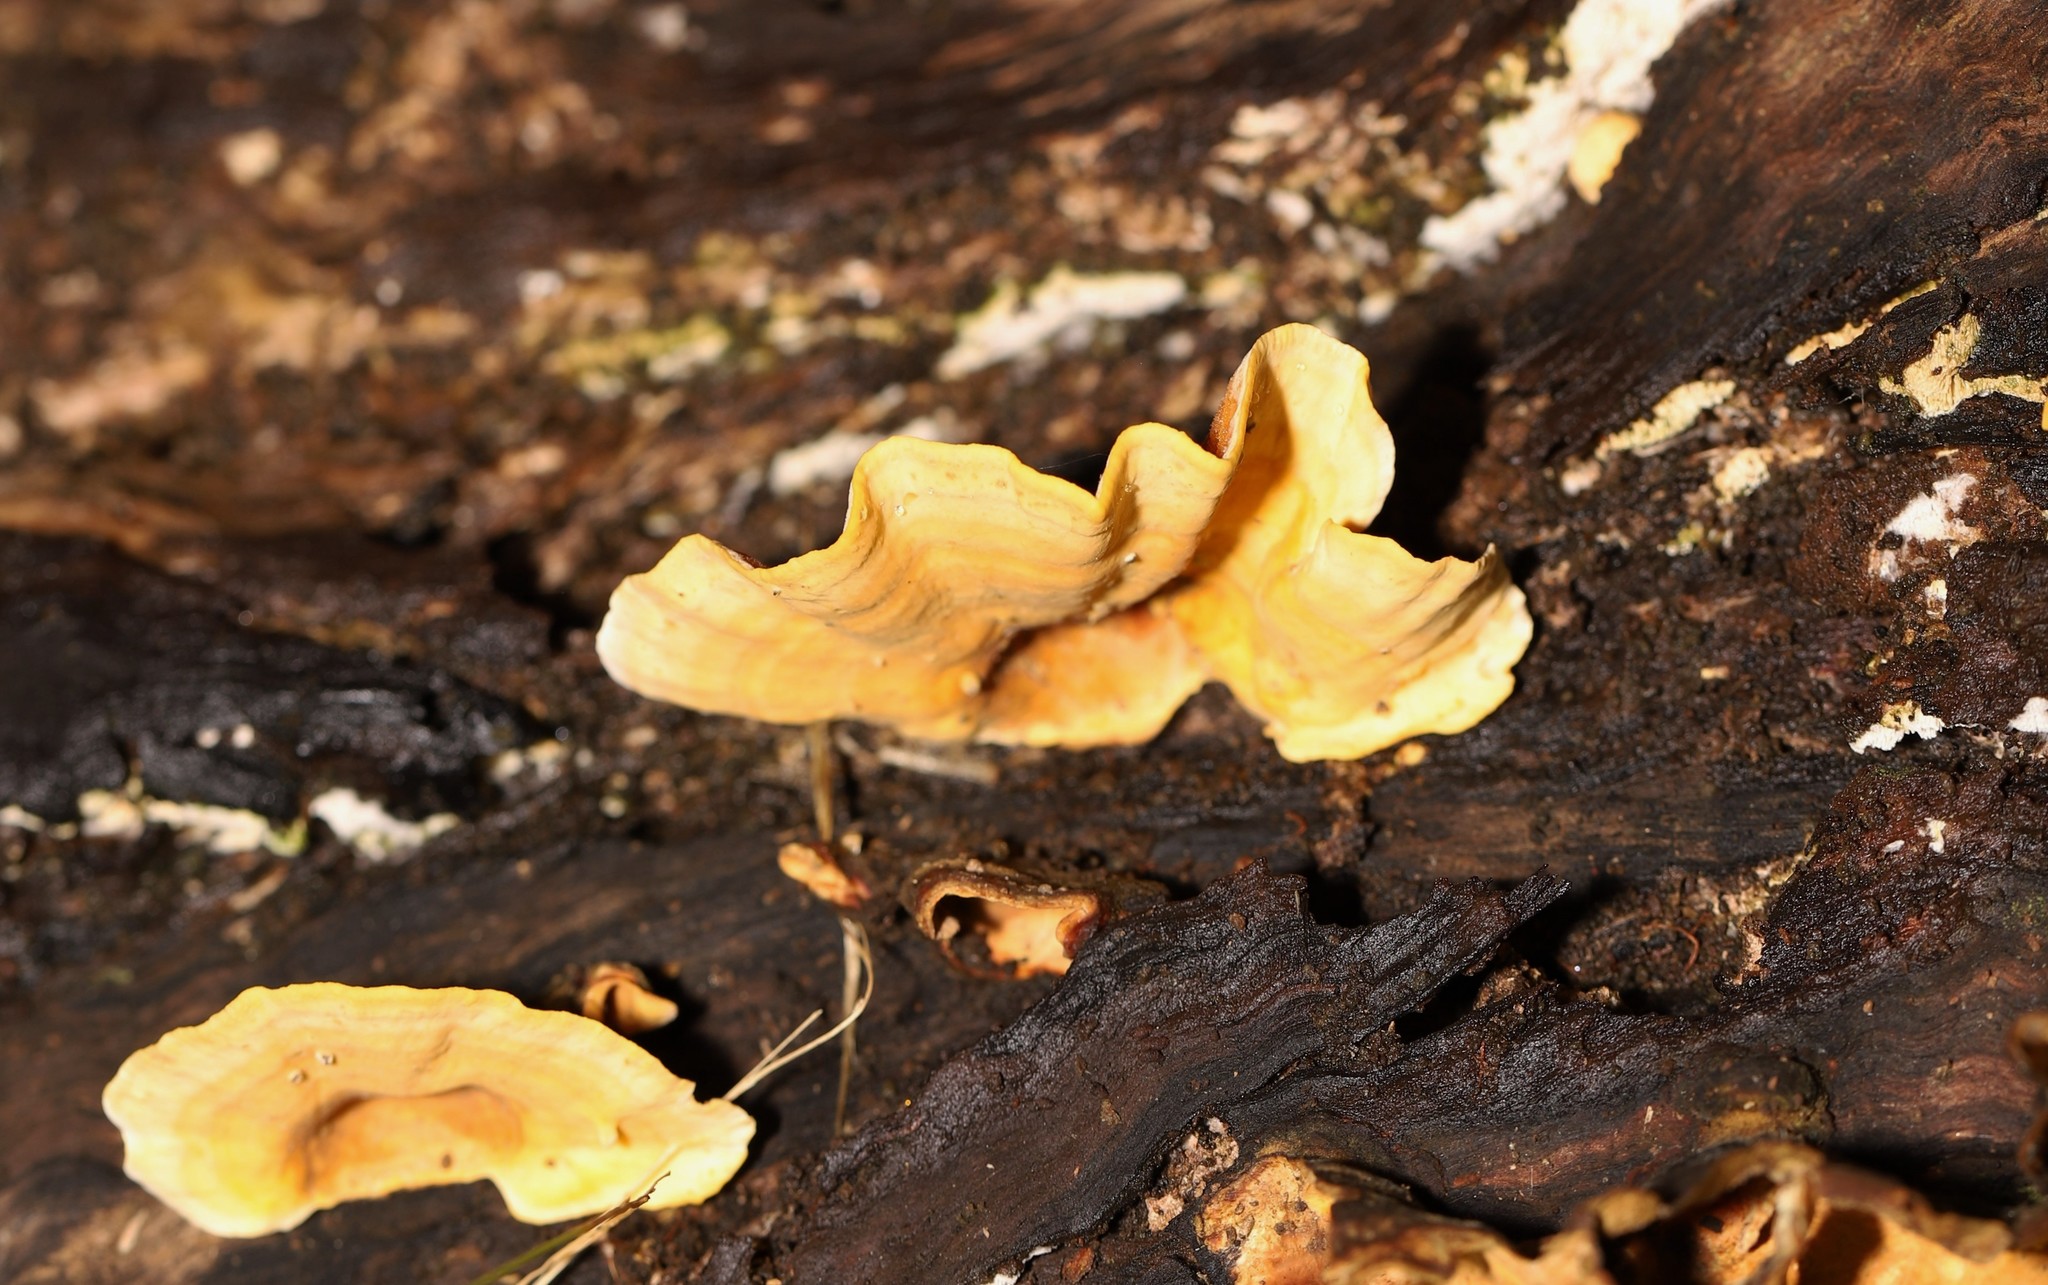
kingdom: Fungi
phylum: Basidiomycota
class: Agaricomycetes
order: Russulales
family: Stereaceae
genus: Stereum
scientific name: Stereum versicolor
